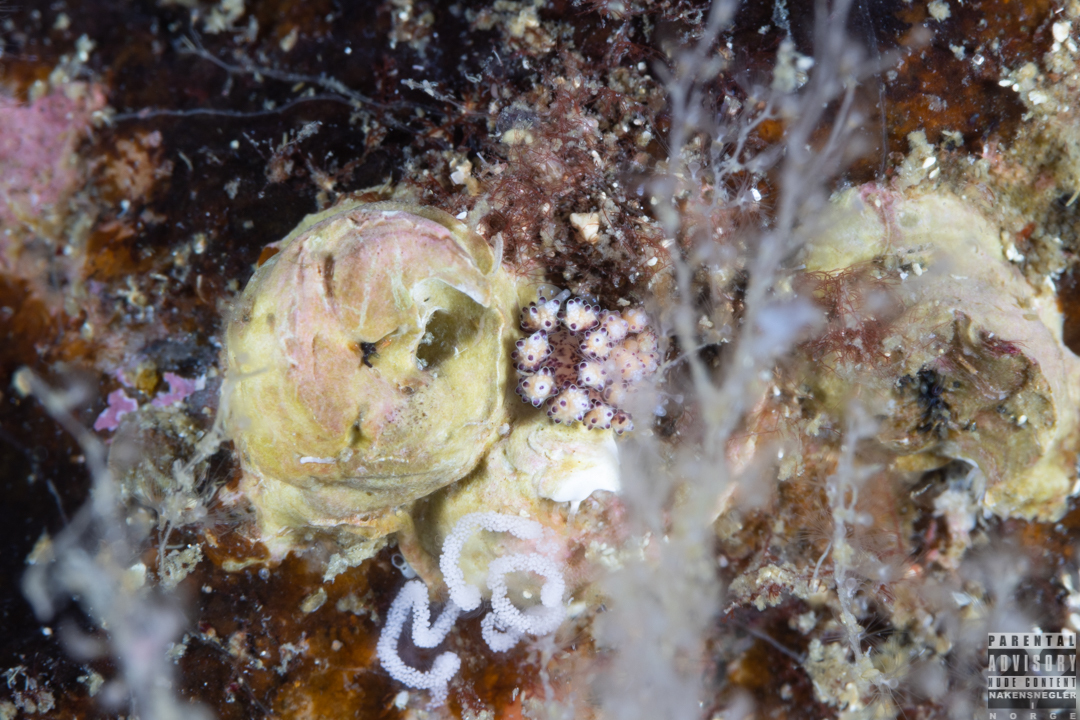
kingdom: Animalia
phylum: Mollusca
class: Gastropoda
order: Nudibranchia
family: Dotidae
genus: Doto
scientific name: Doto coronata
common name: Coronate doto
